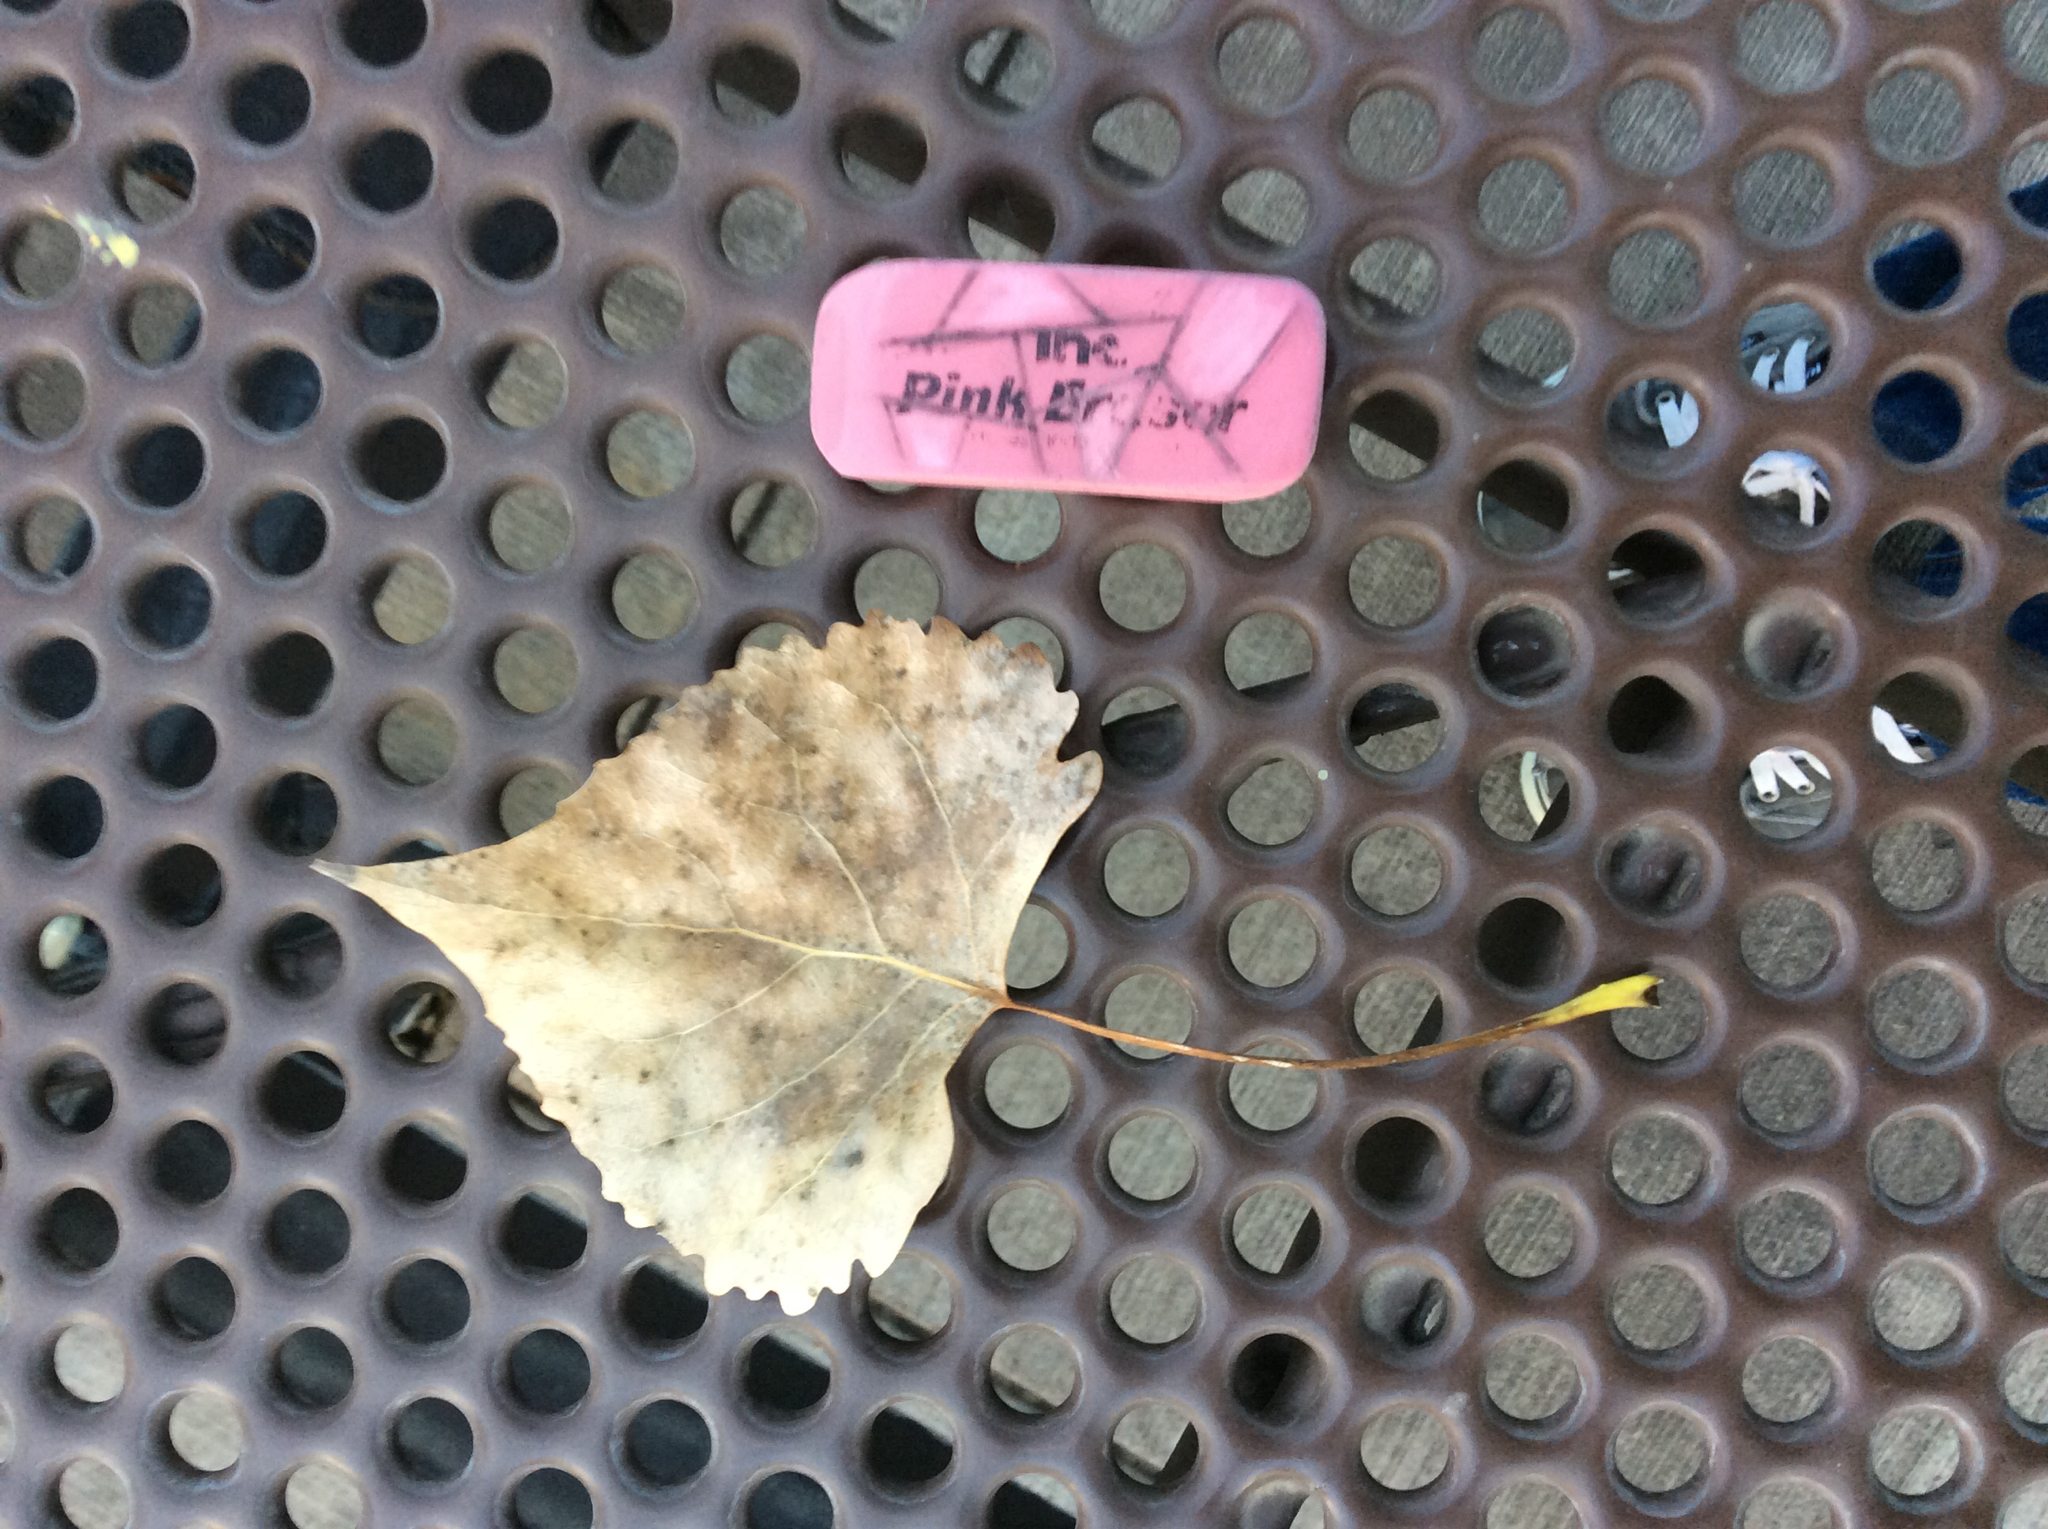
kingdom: Plantae
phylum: Tracheophyta
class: Magnoliopsida
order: Malpighiales
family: Salicaceae
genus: Populus
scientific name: Populus deltoides
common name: Eastern cottonwood
